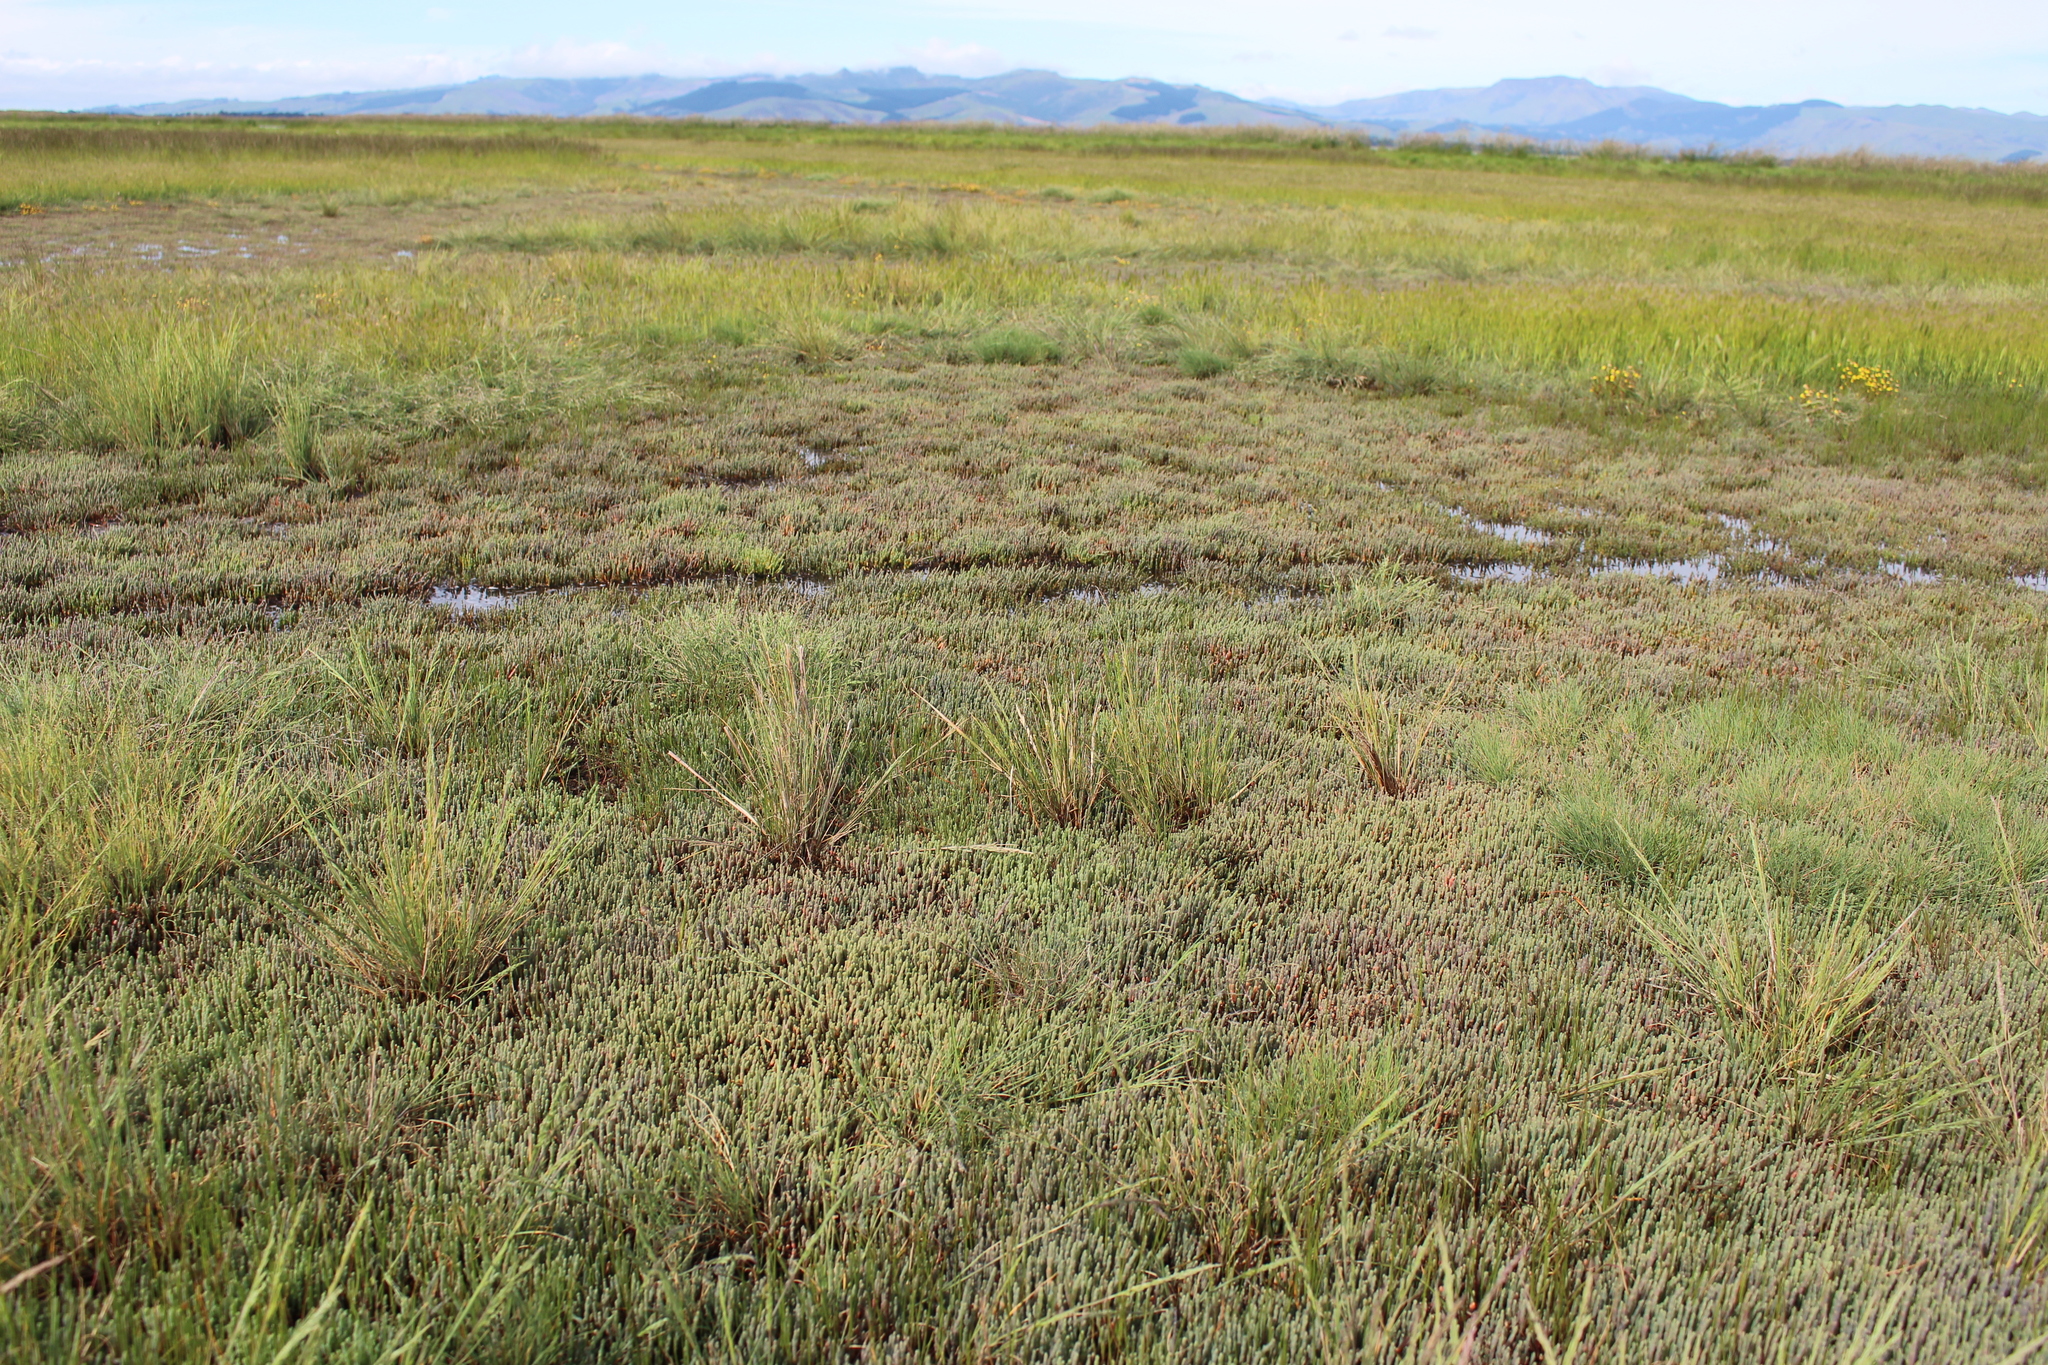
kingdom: Plantae
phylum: Tracheophyta
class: Magnoliopsida
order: Caryophyllales
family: Amaranthaceae
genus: Salicornia
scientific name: Salicornia quinqueflora
